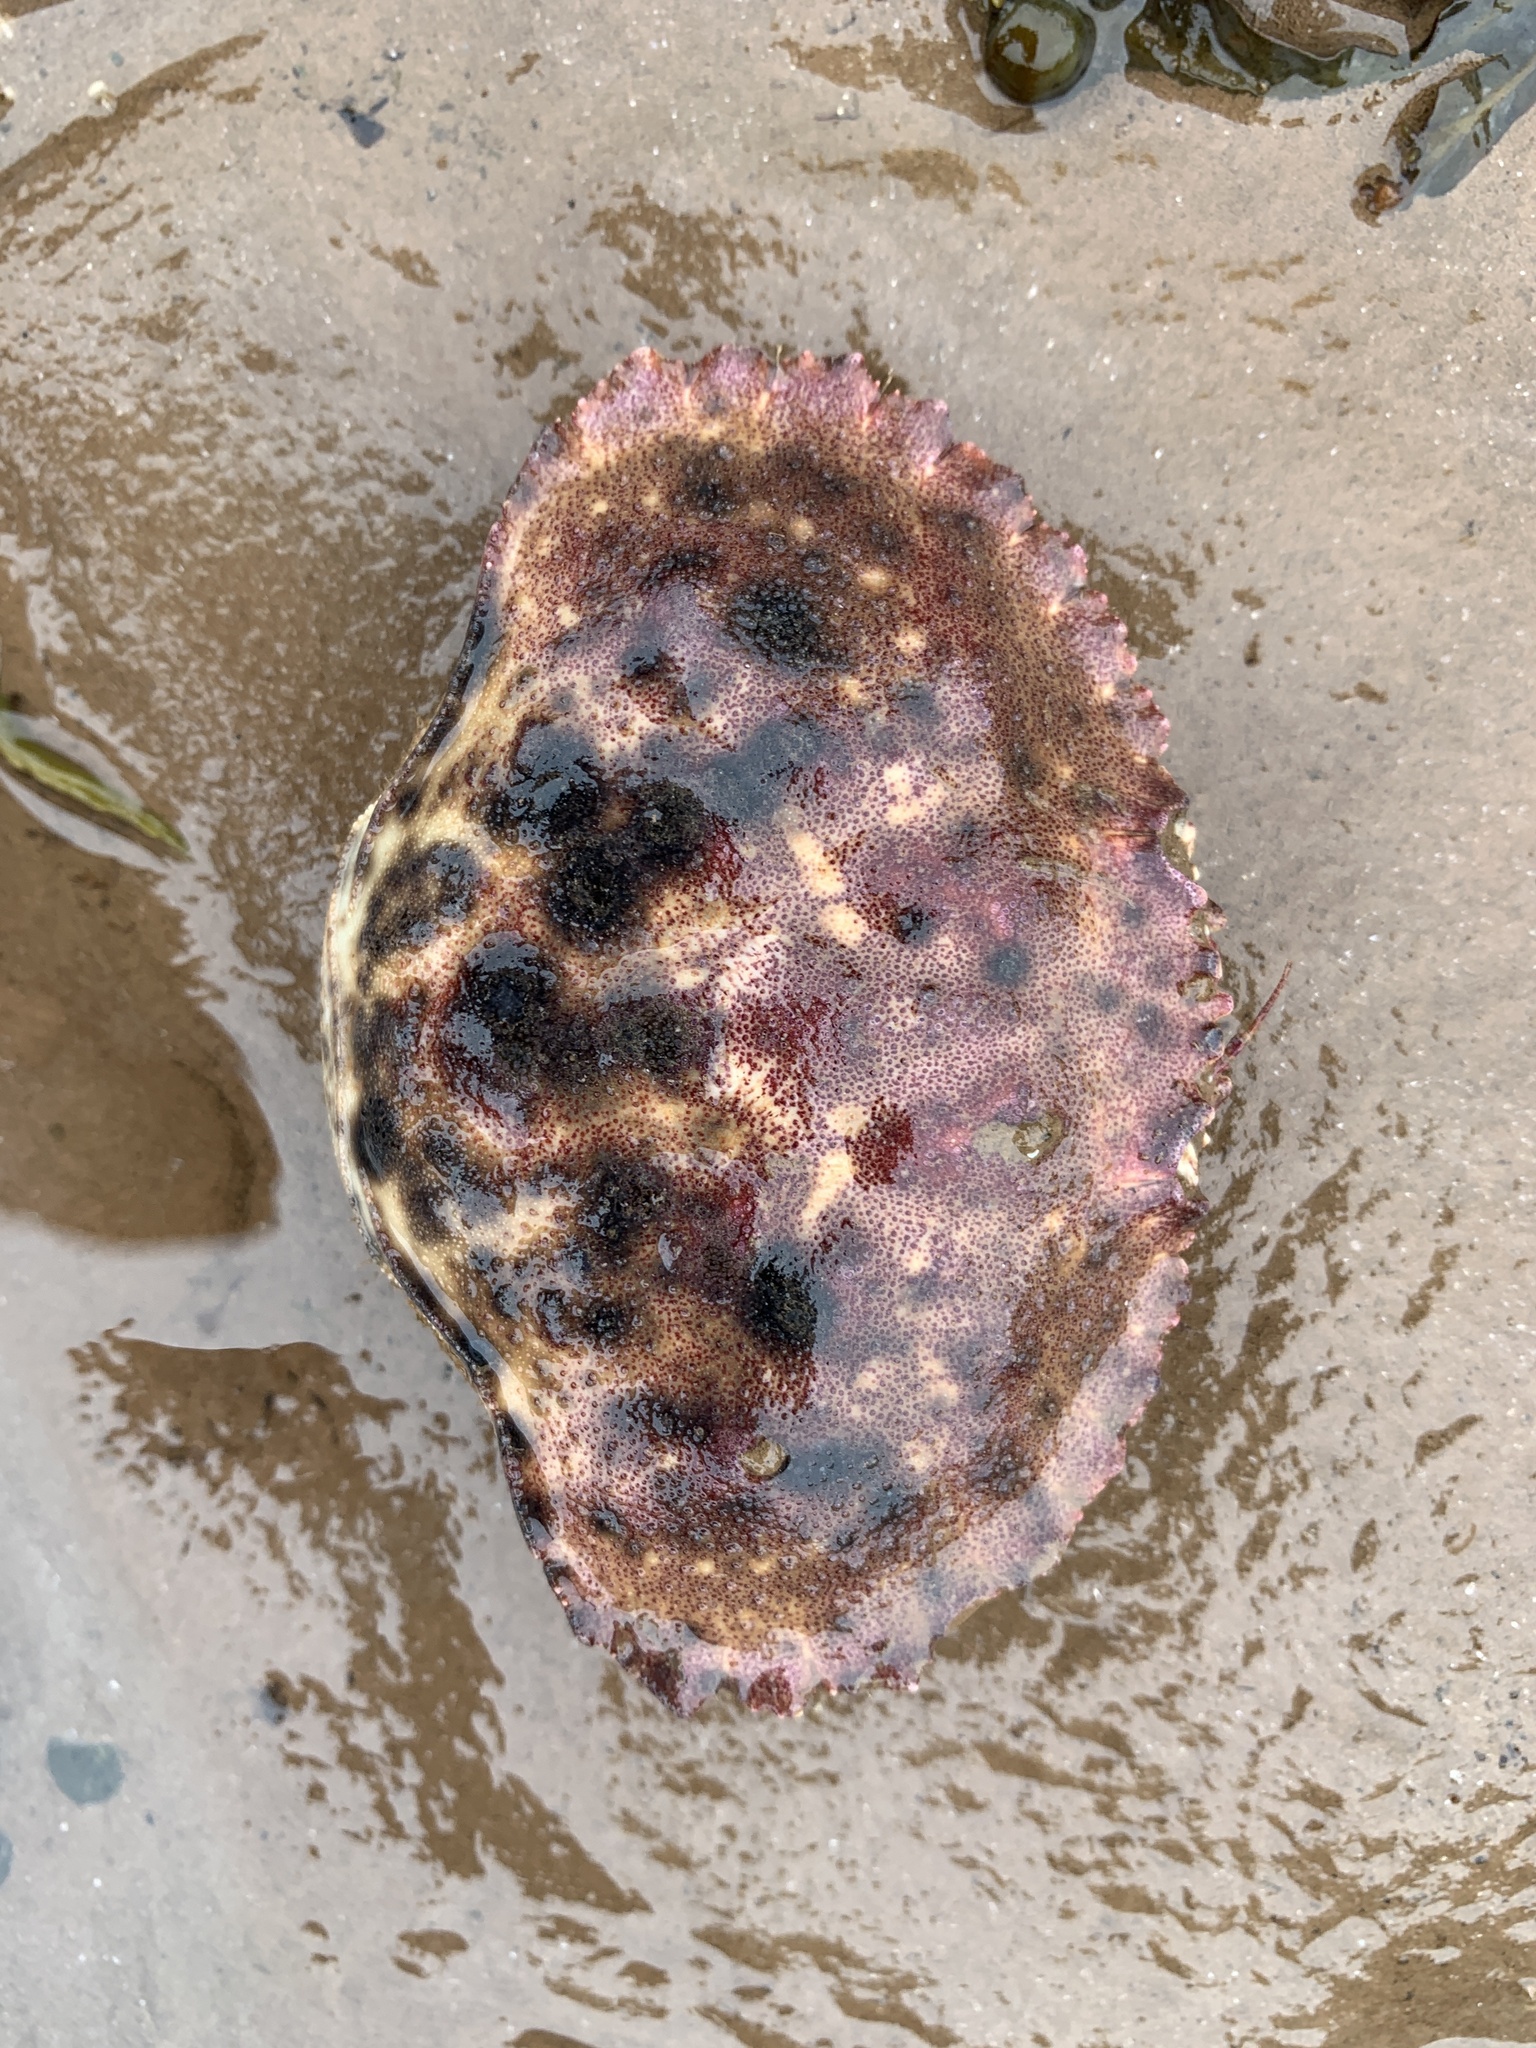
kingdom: Animalia
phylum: Arthropoda
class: Malacostraca
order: Decapoda
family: Cancridae
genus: Cancer
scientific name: Cancer borealis
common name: Jonah crab
